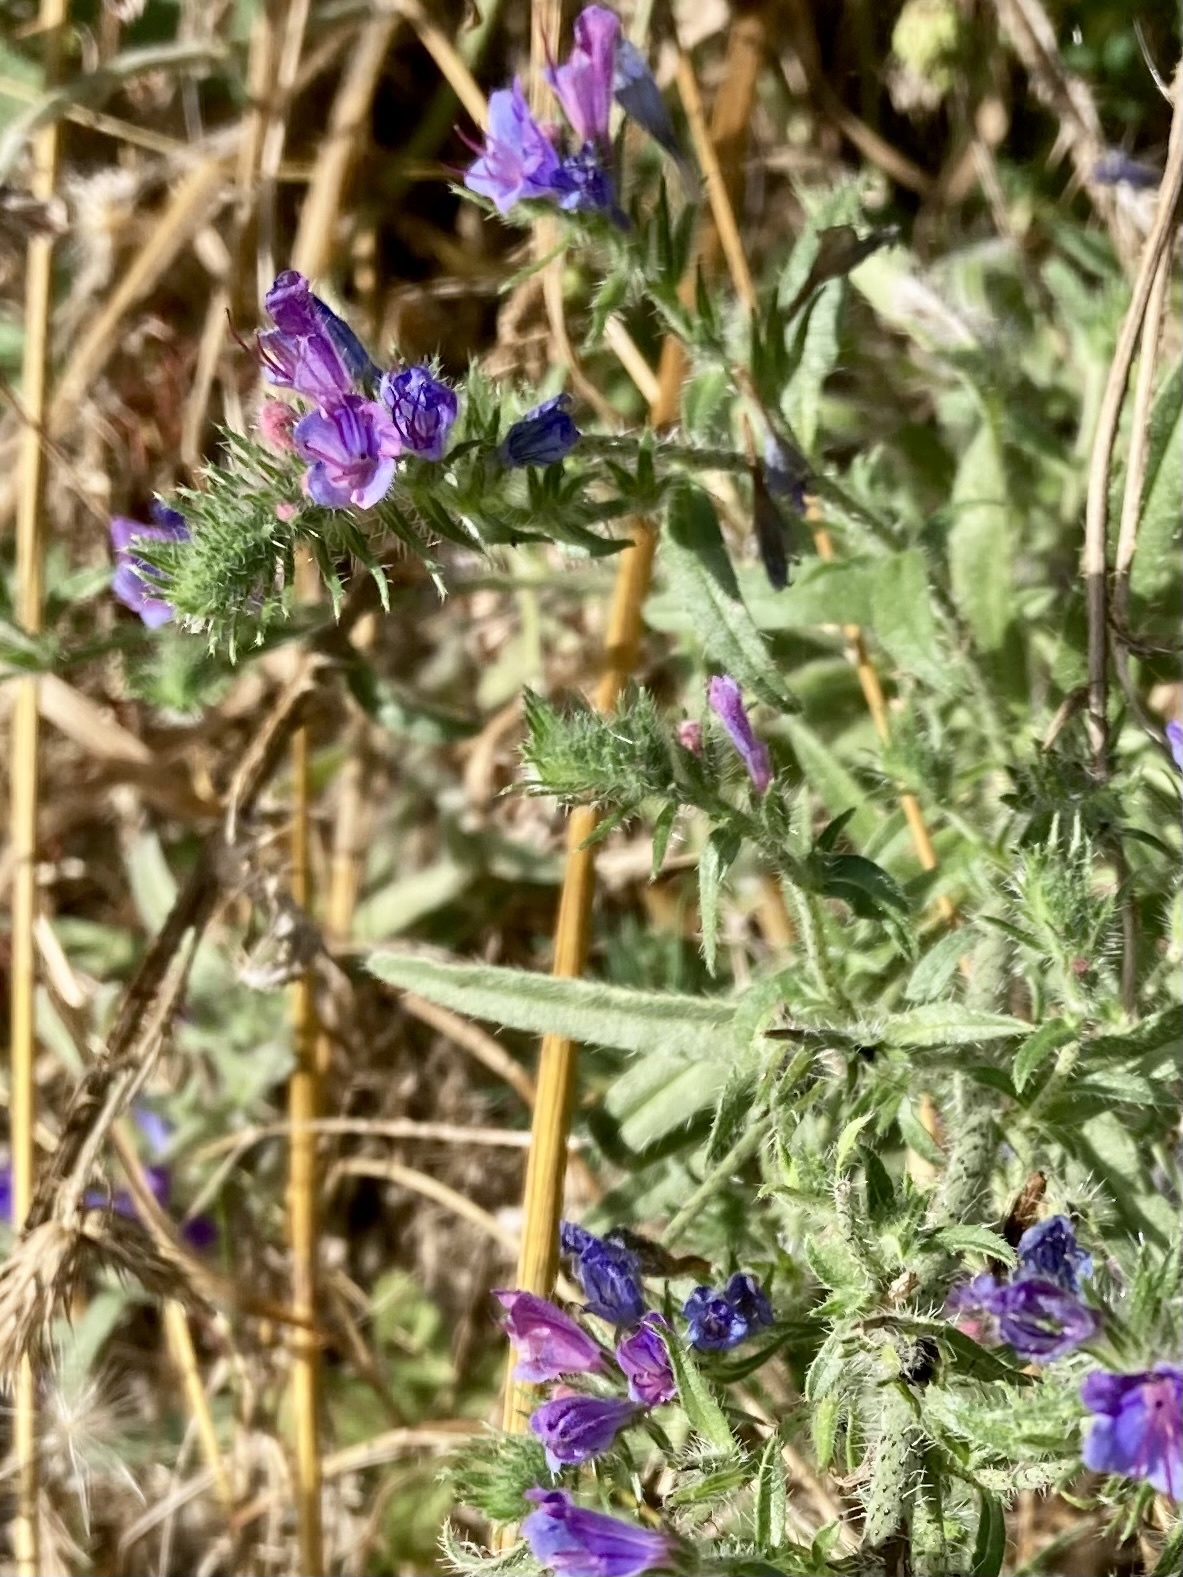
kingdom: Plantae
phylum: Tracheophyta
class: Magnoliopsida
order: Boraginales
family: Boraginaceae
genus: Echium
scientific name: Echium vulgare
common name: Common viper's bugloss
